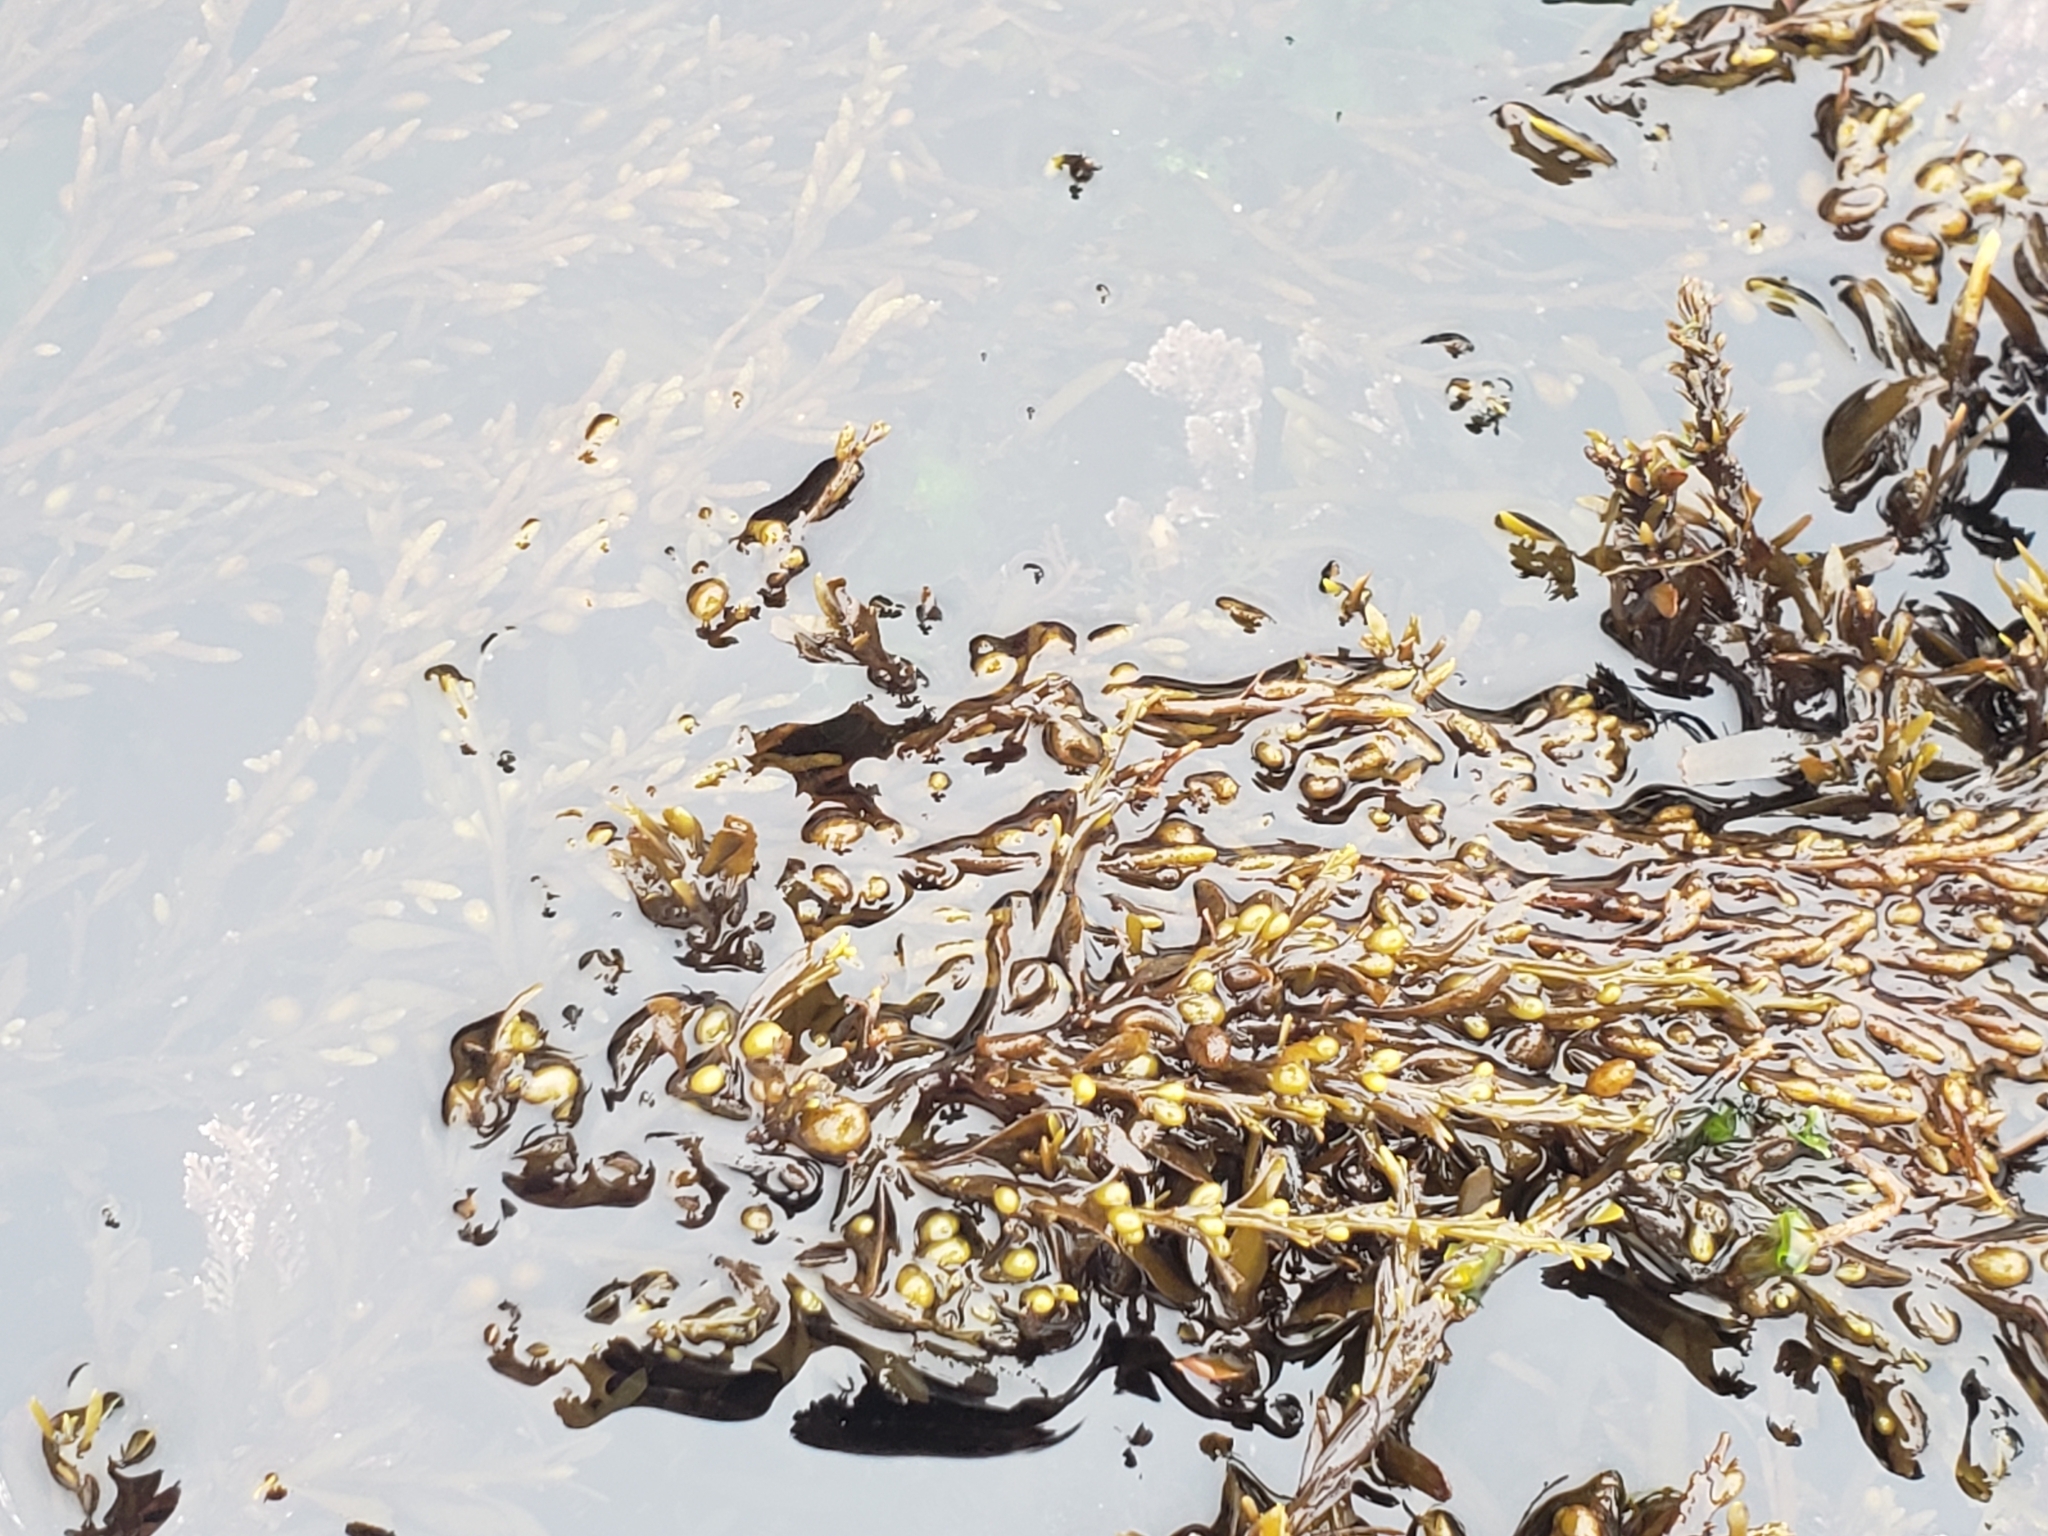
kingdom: Chromista
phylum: Ochrophyta
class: Phaeophyceae
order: Fucales
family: Sargassaceae
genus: Sargassum
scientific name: Sargassum muticum
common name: Japweed
